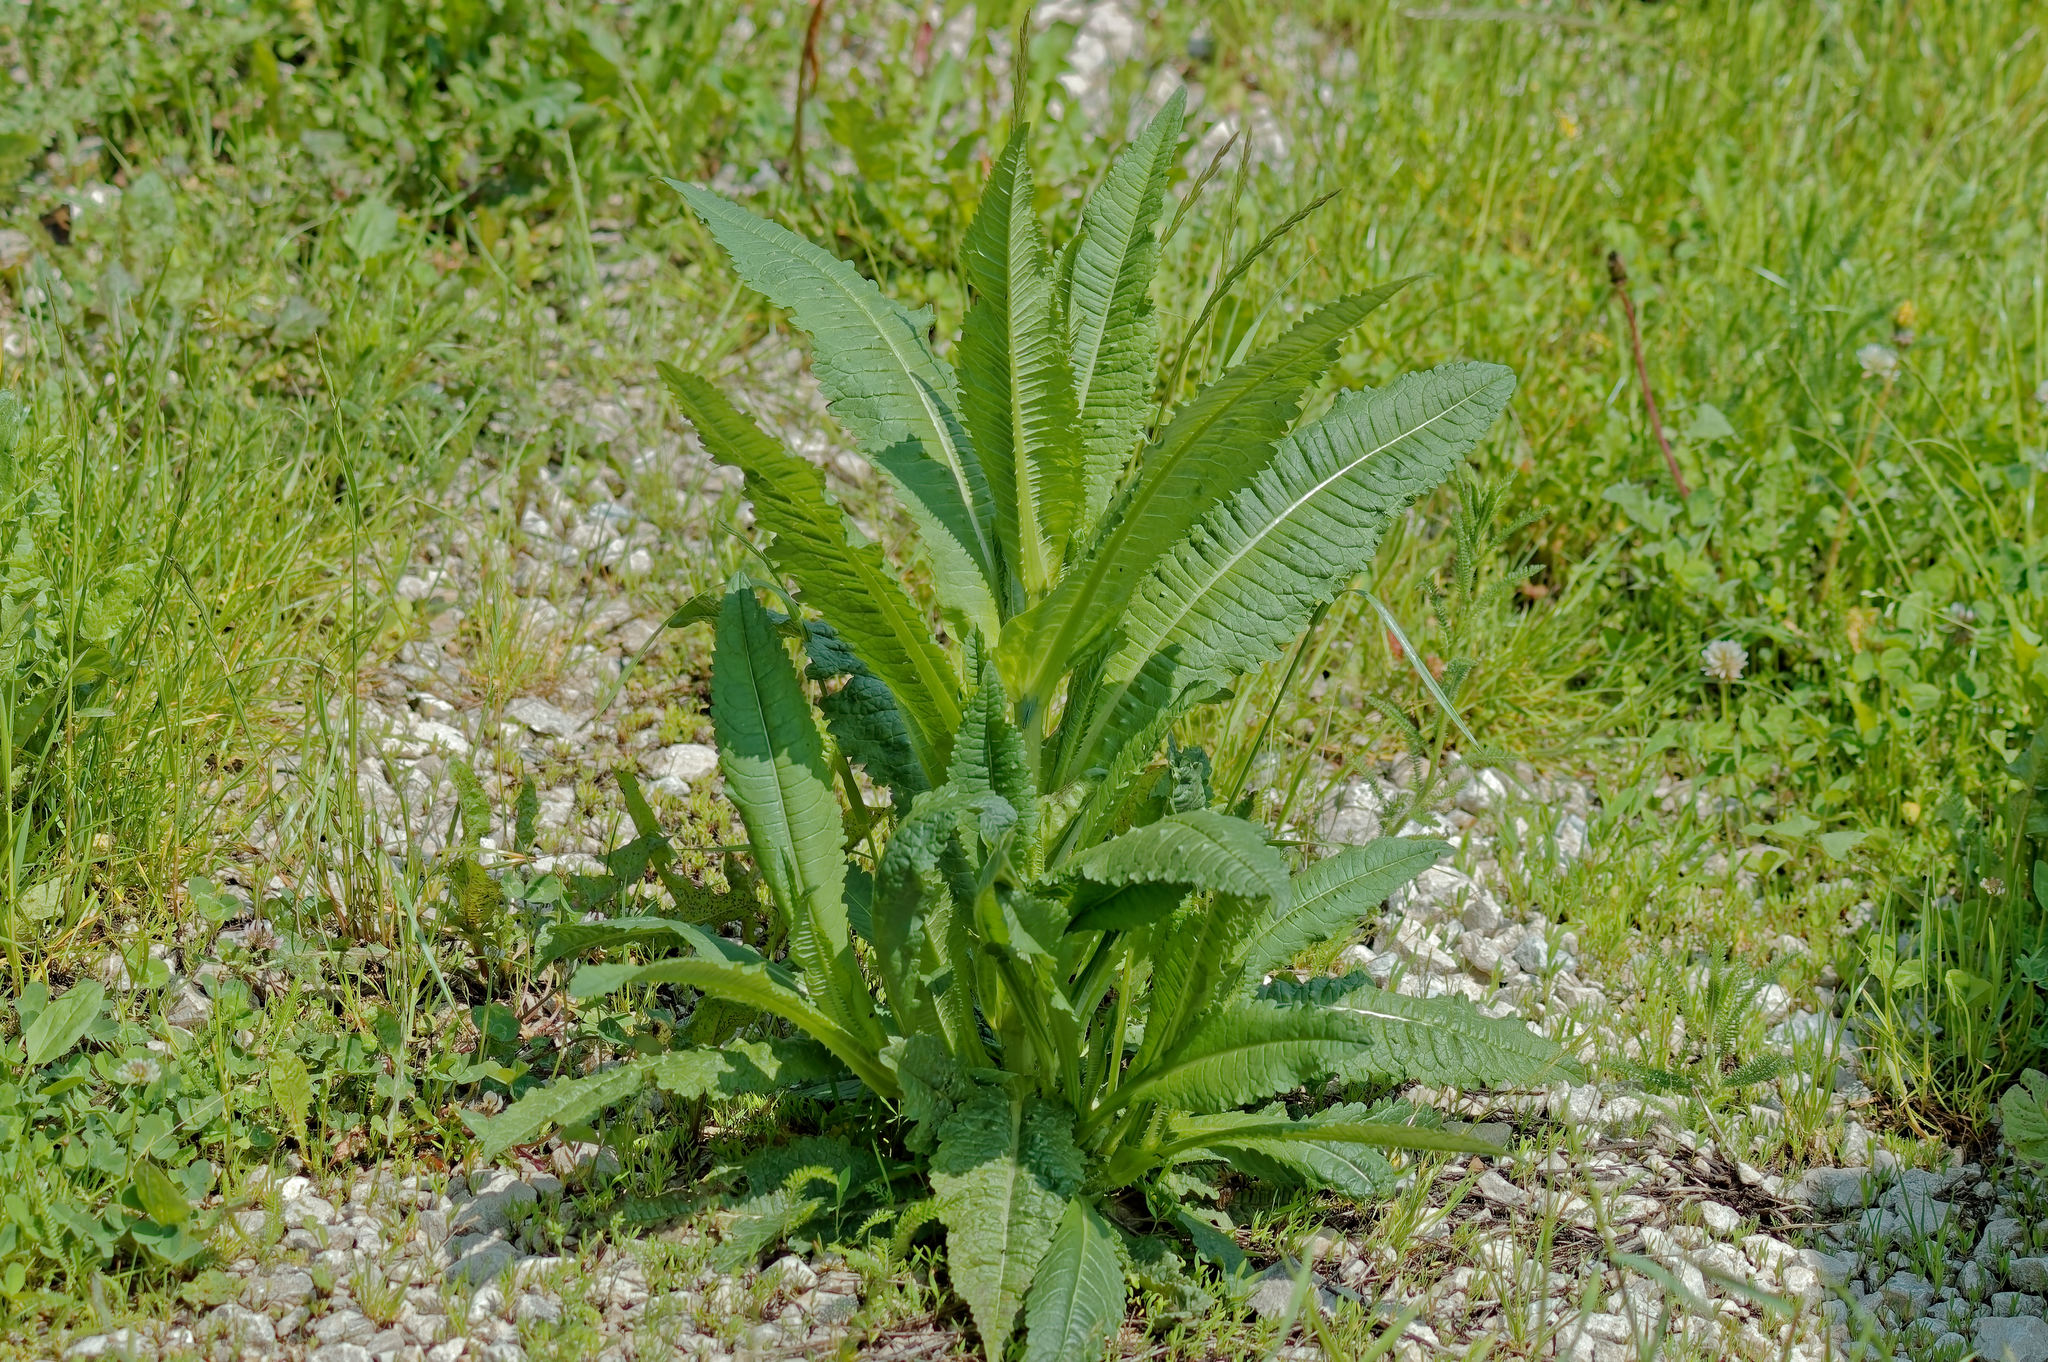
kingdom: Plantae
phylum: Tracheophyta
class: Magnoliopsida
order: Dipsacales
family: Caprifoliaceae
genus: Dipsacus
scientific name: Dipsacus fullonum
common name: Teasel
